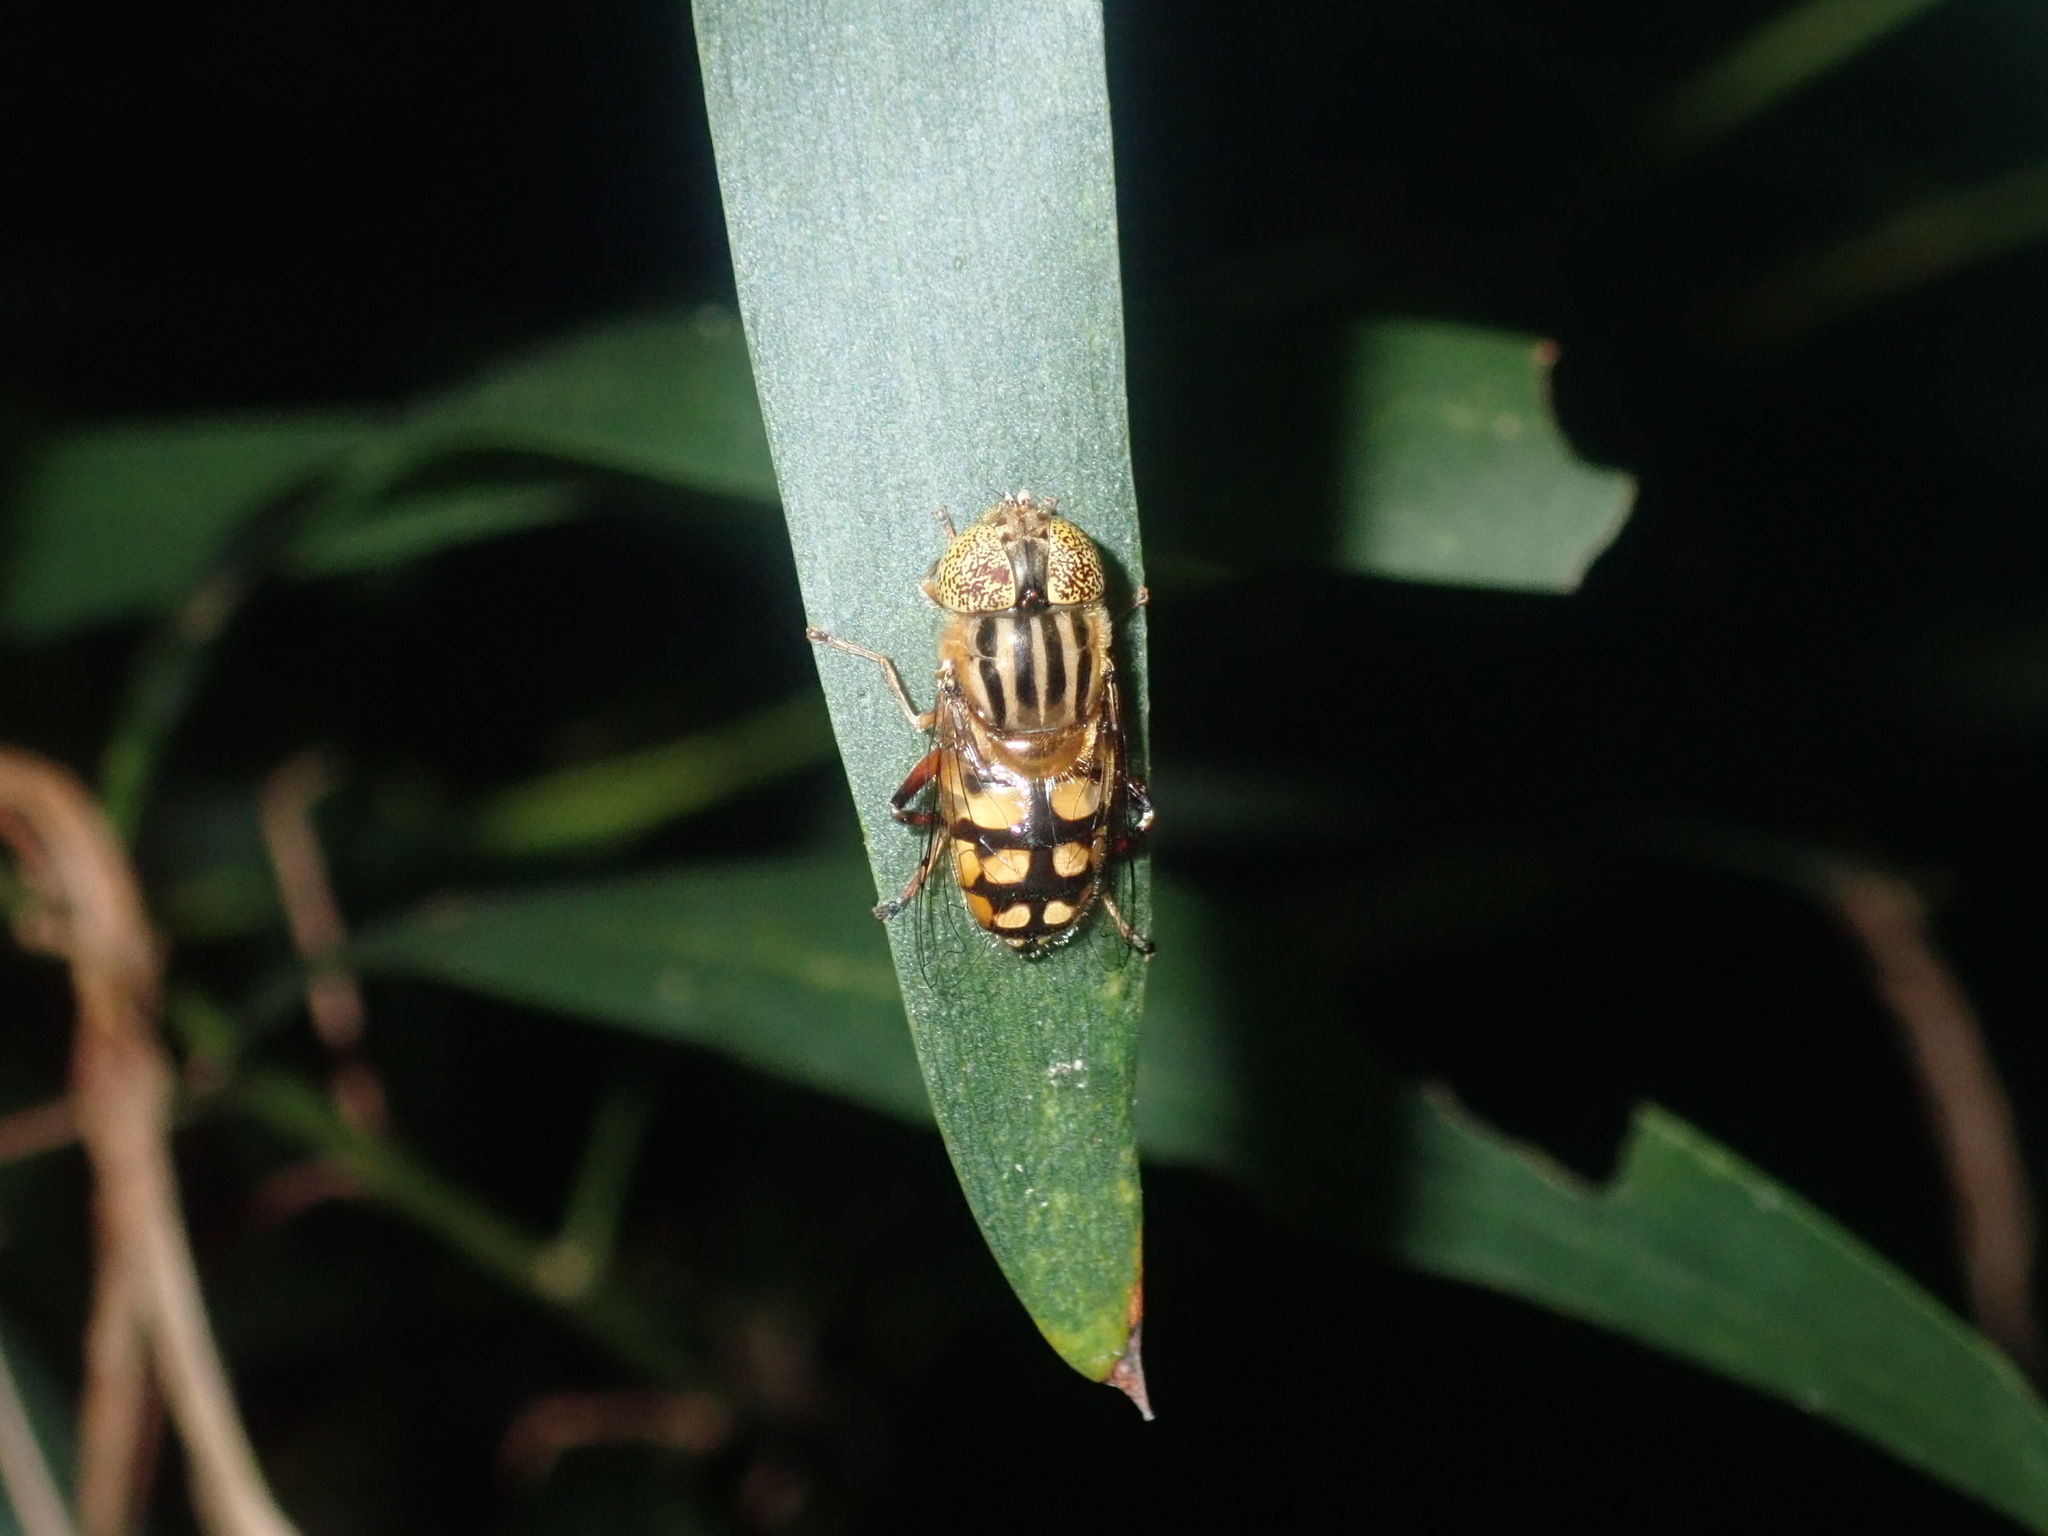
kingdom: Animalia
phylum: Arthropoda
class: Insecta
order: Diptera
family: Syrphidae
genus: Eristalinus
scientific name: Eristalinus punctulatus
